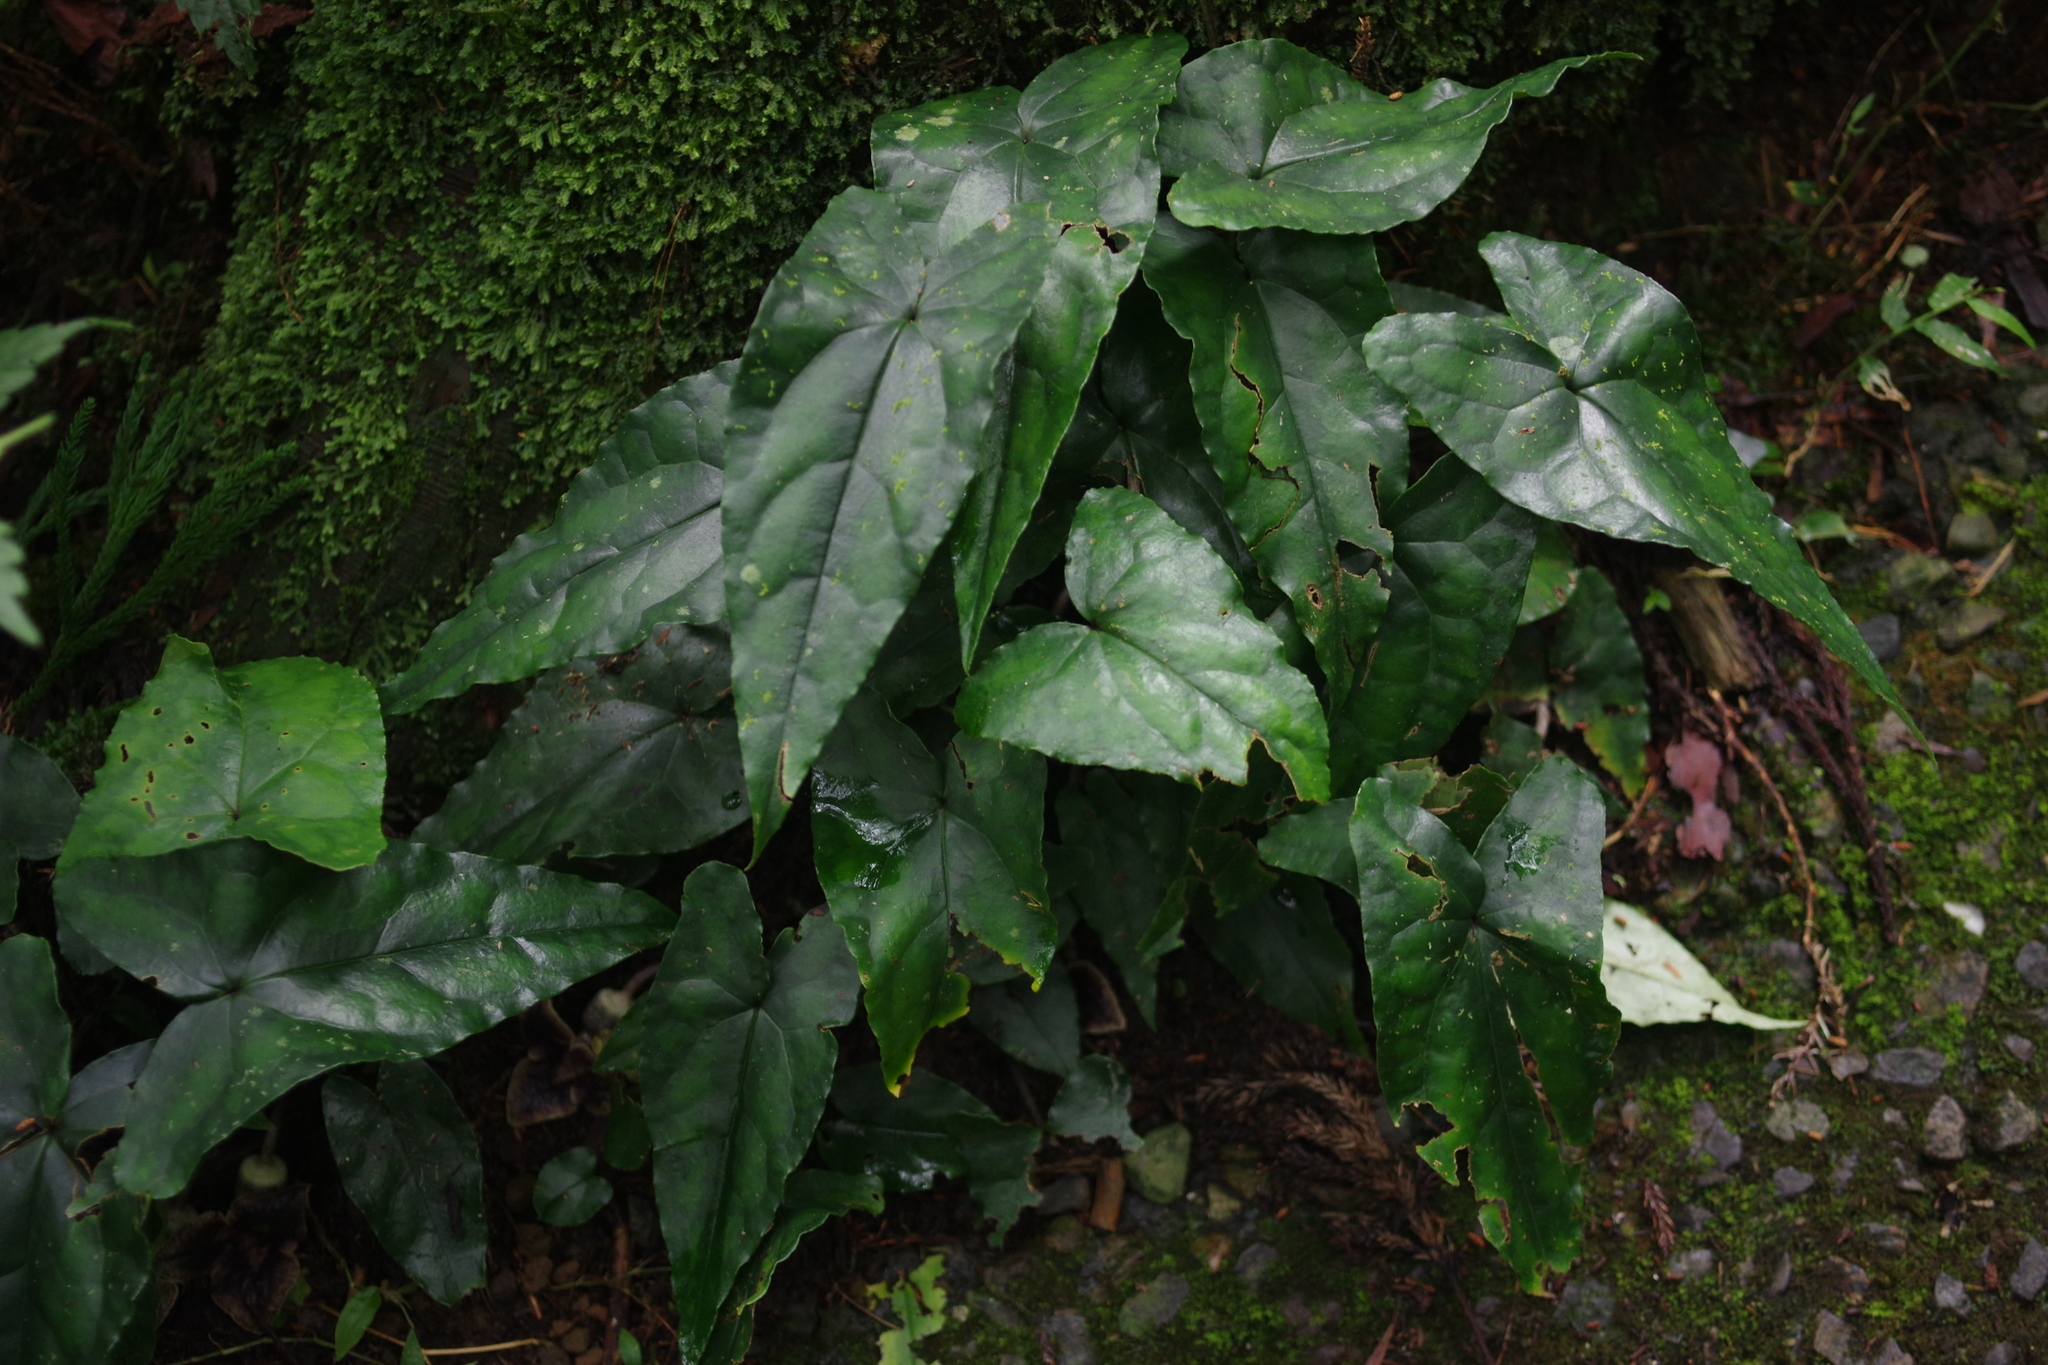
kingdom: Plantae
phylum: Tracheophyta
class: Magnoliopsida
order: Piperales
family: Aristolochiaceae
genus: Asarum
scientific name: Asarum hypogynum
